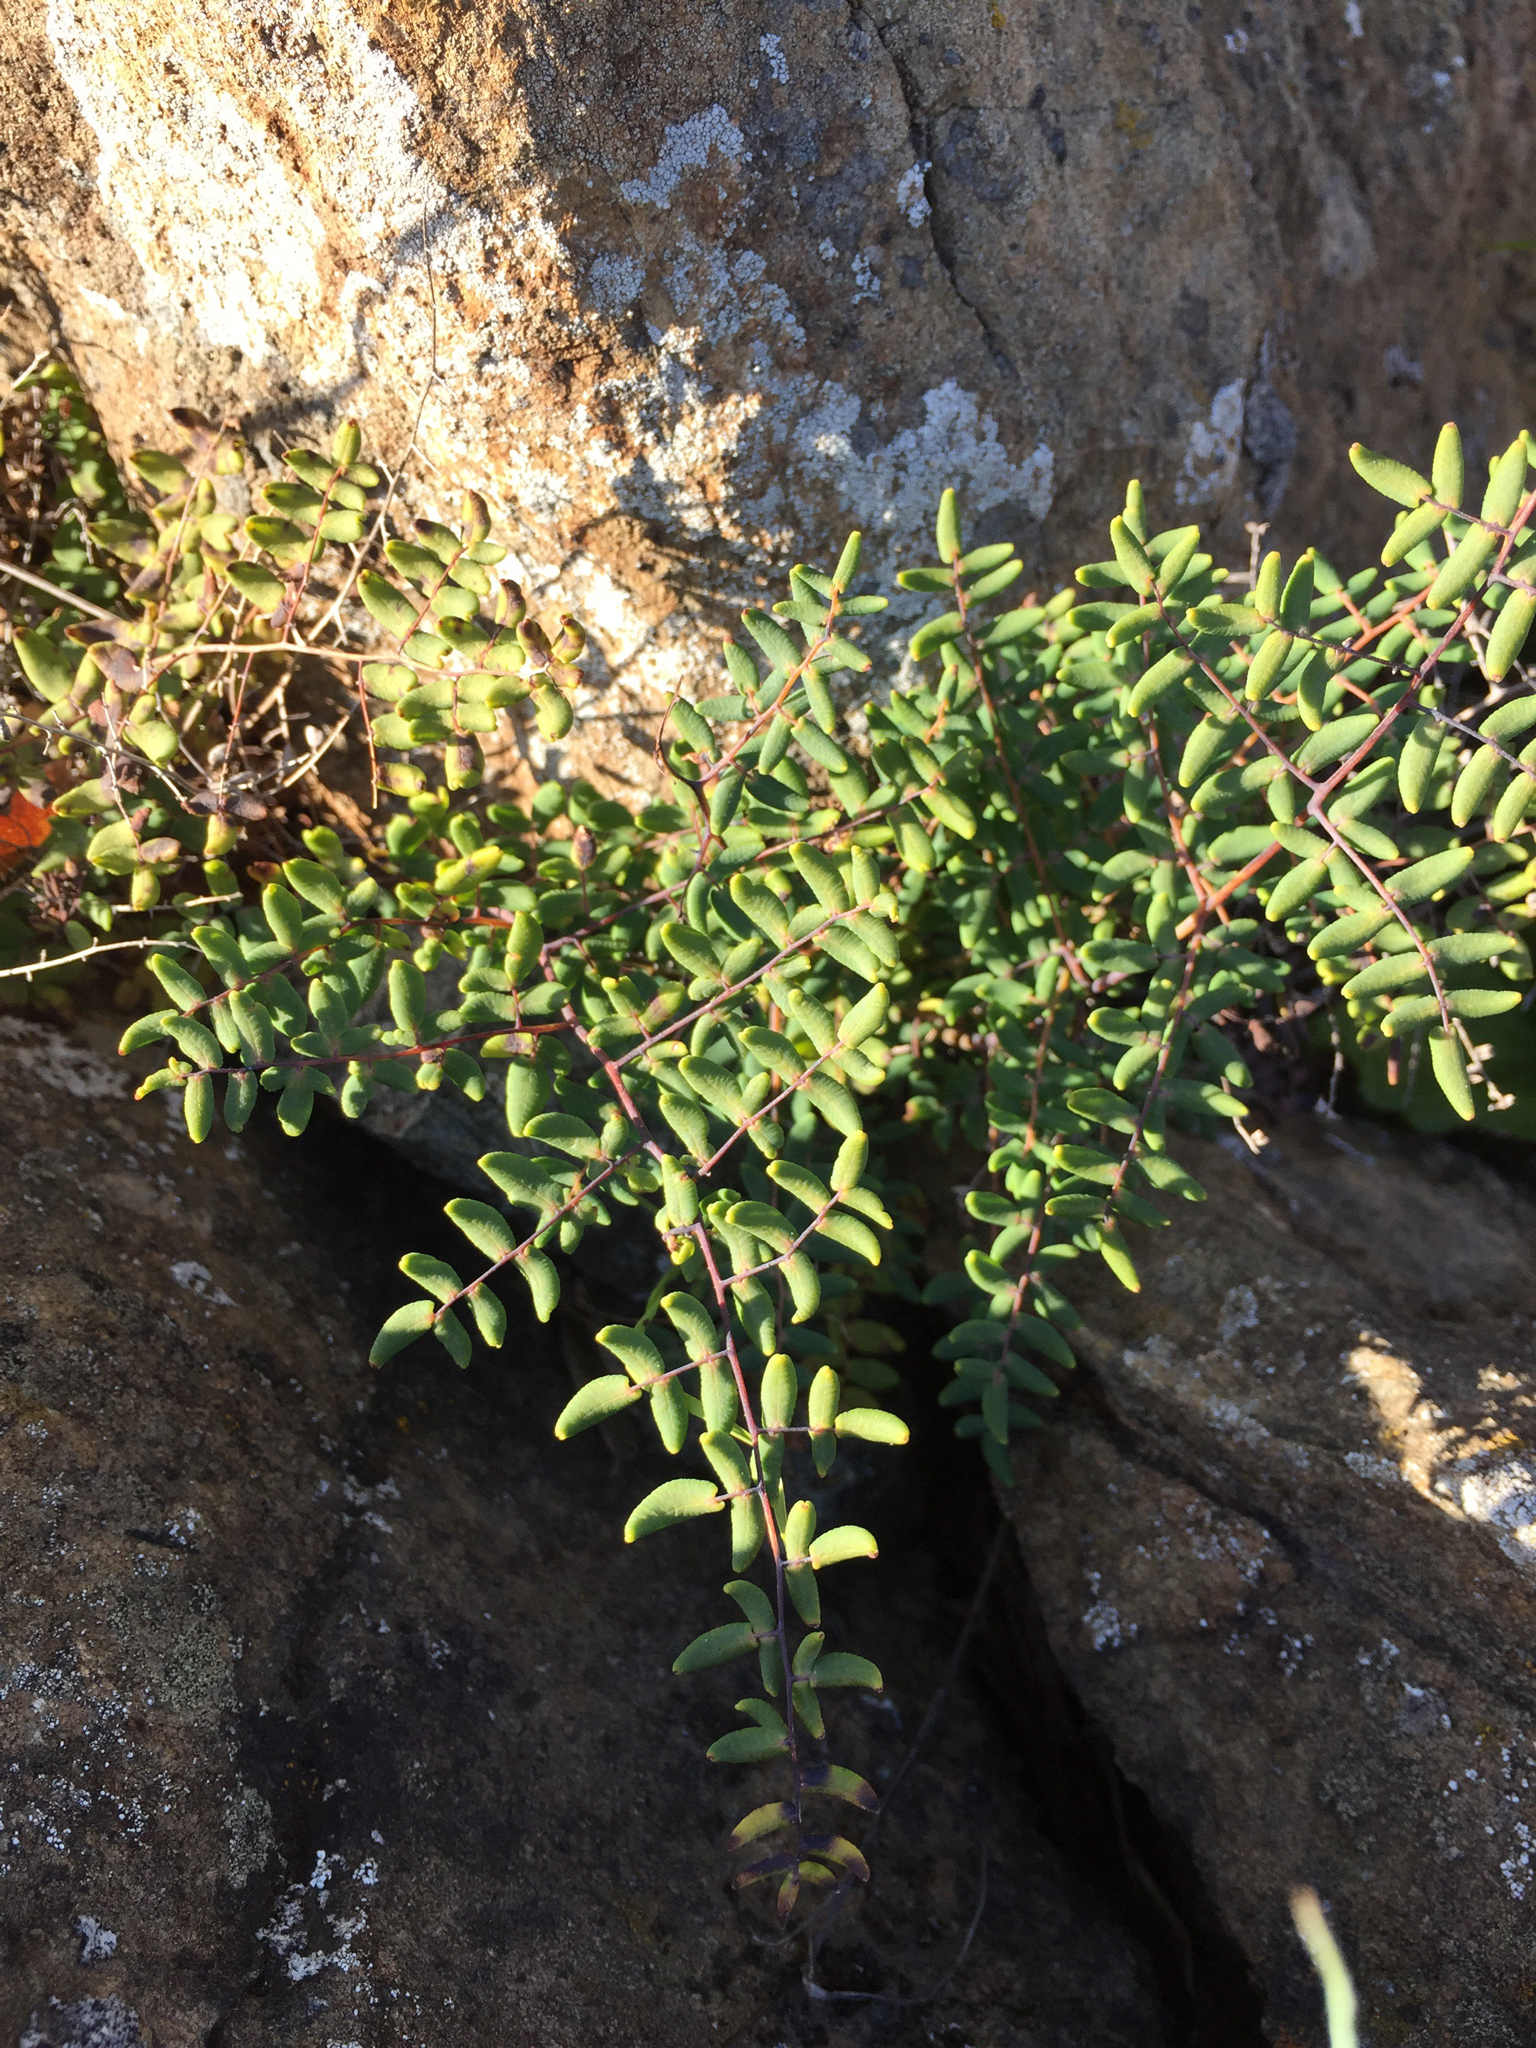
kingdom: Plantae
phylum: Tracheophyta
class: Polypodiopsida
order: Polypodiales
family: Pteridaceae
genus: Pellaea
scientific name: Pellaea andromedifolia
